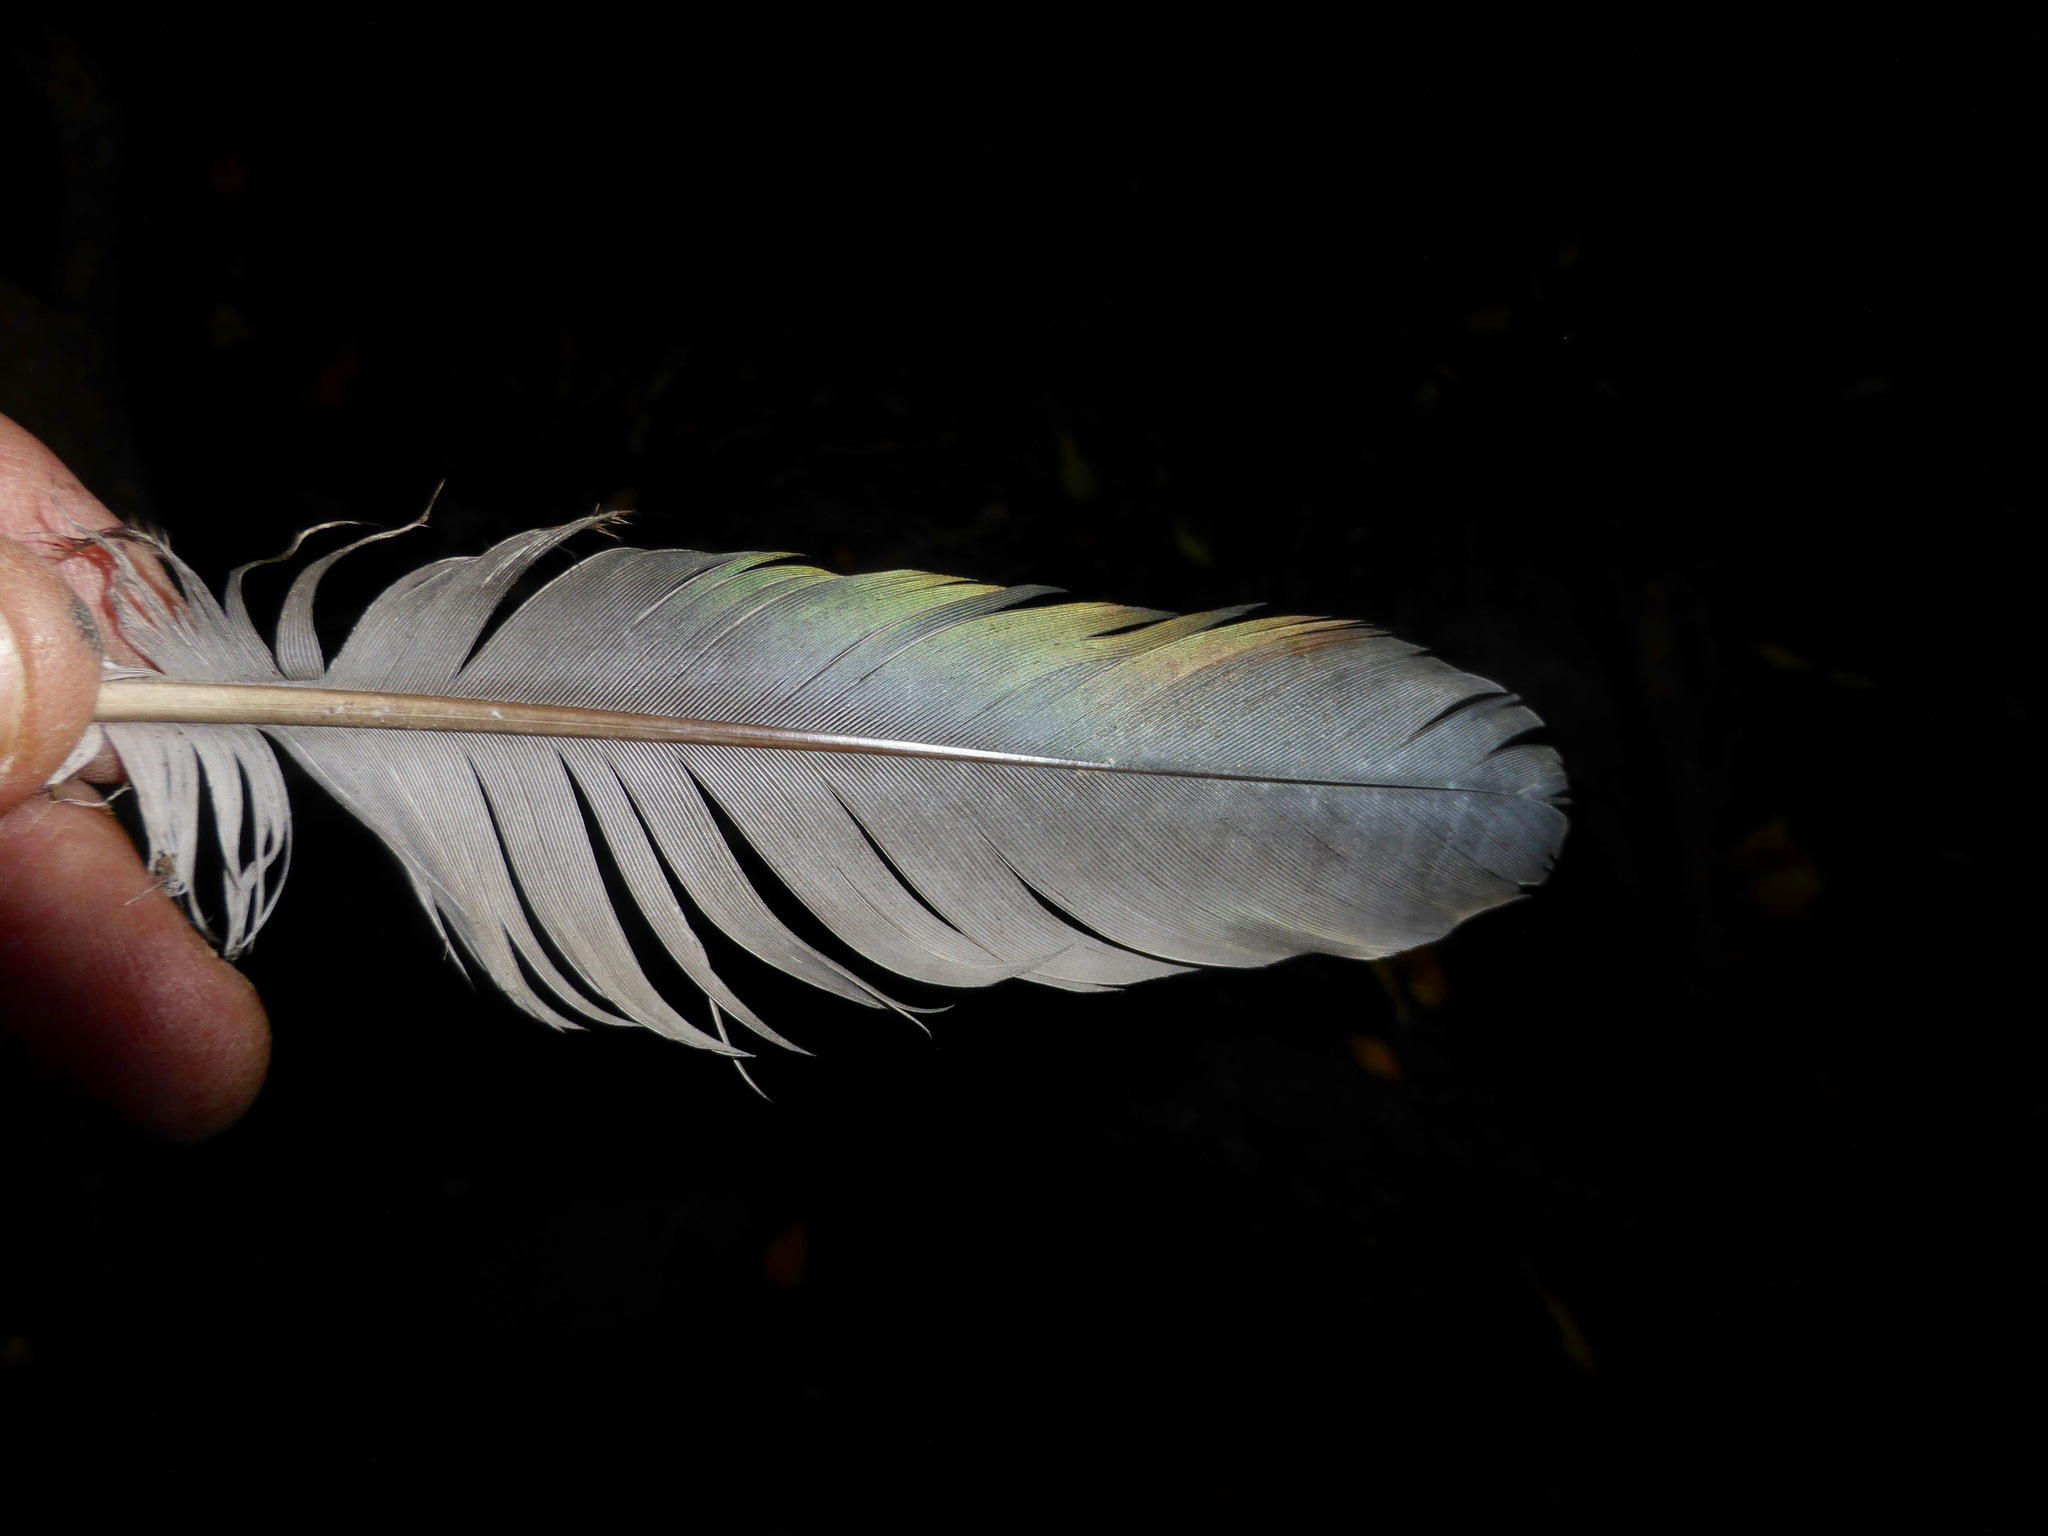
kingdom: Animalia
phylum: Chordata
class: Aves
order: Columbiformes
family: Columbidae
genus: Hemiphaga
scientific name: Hemiphaga novaeseelandiae
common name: New zealand pigeon
